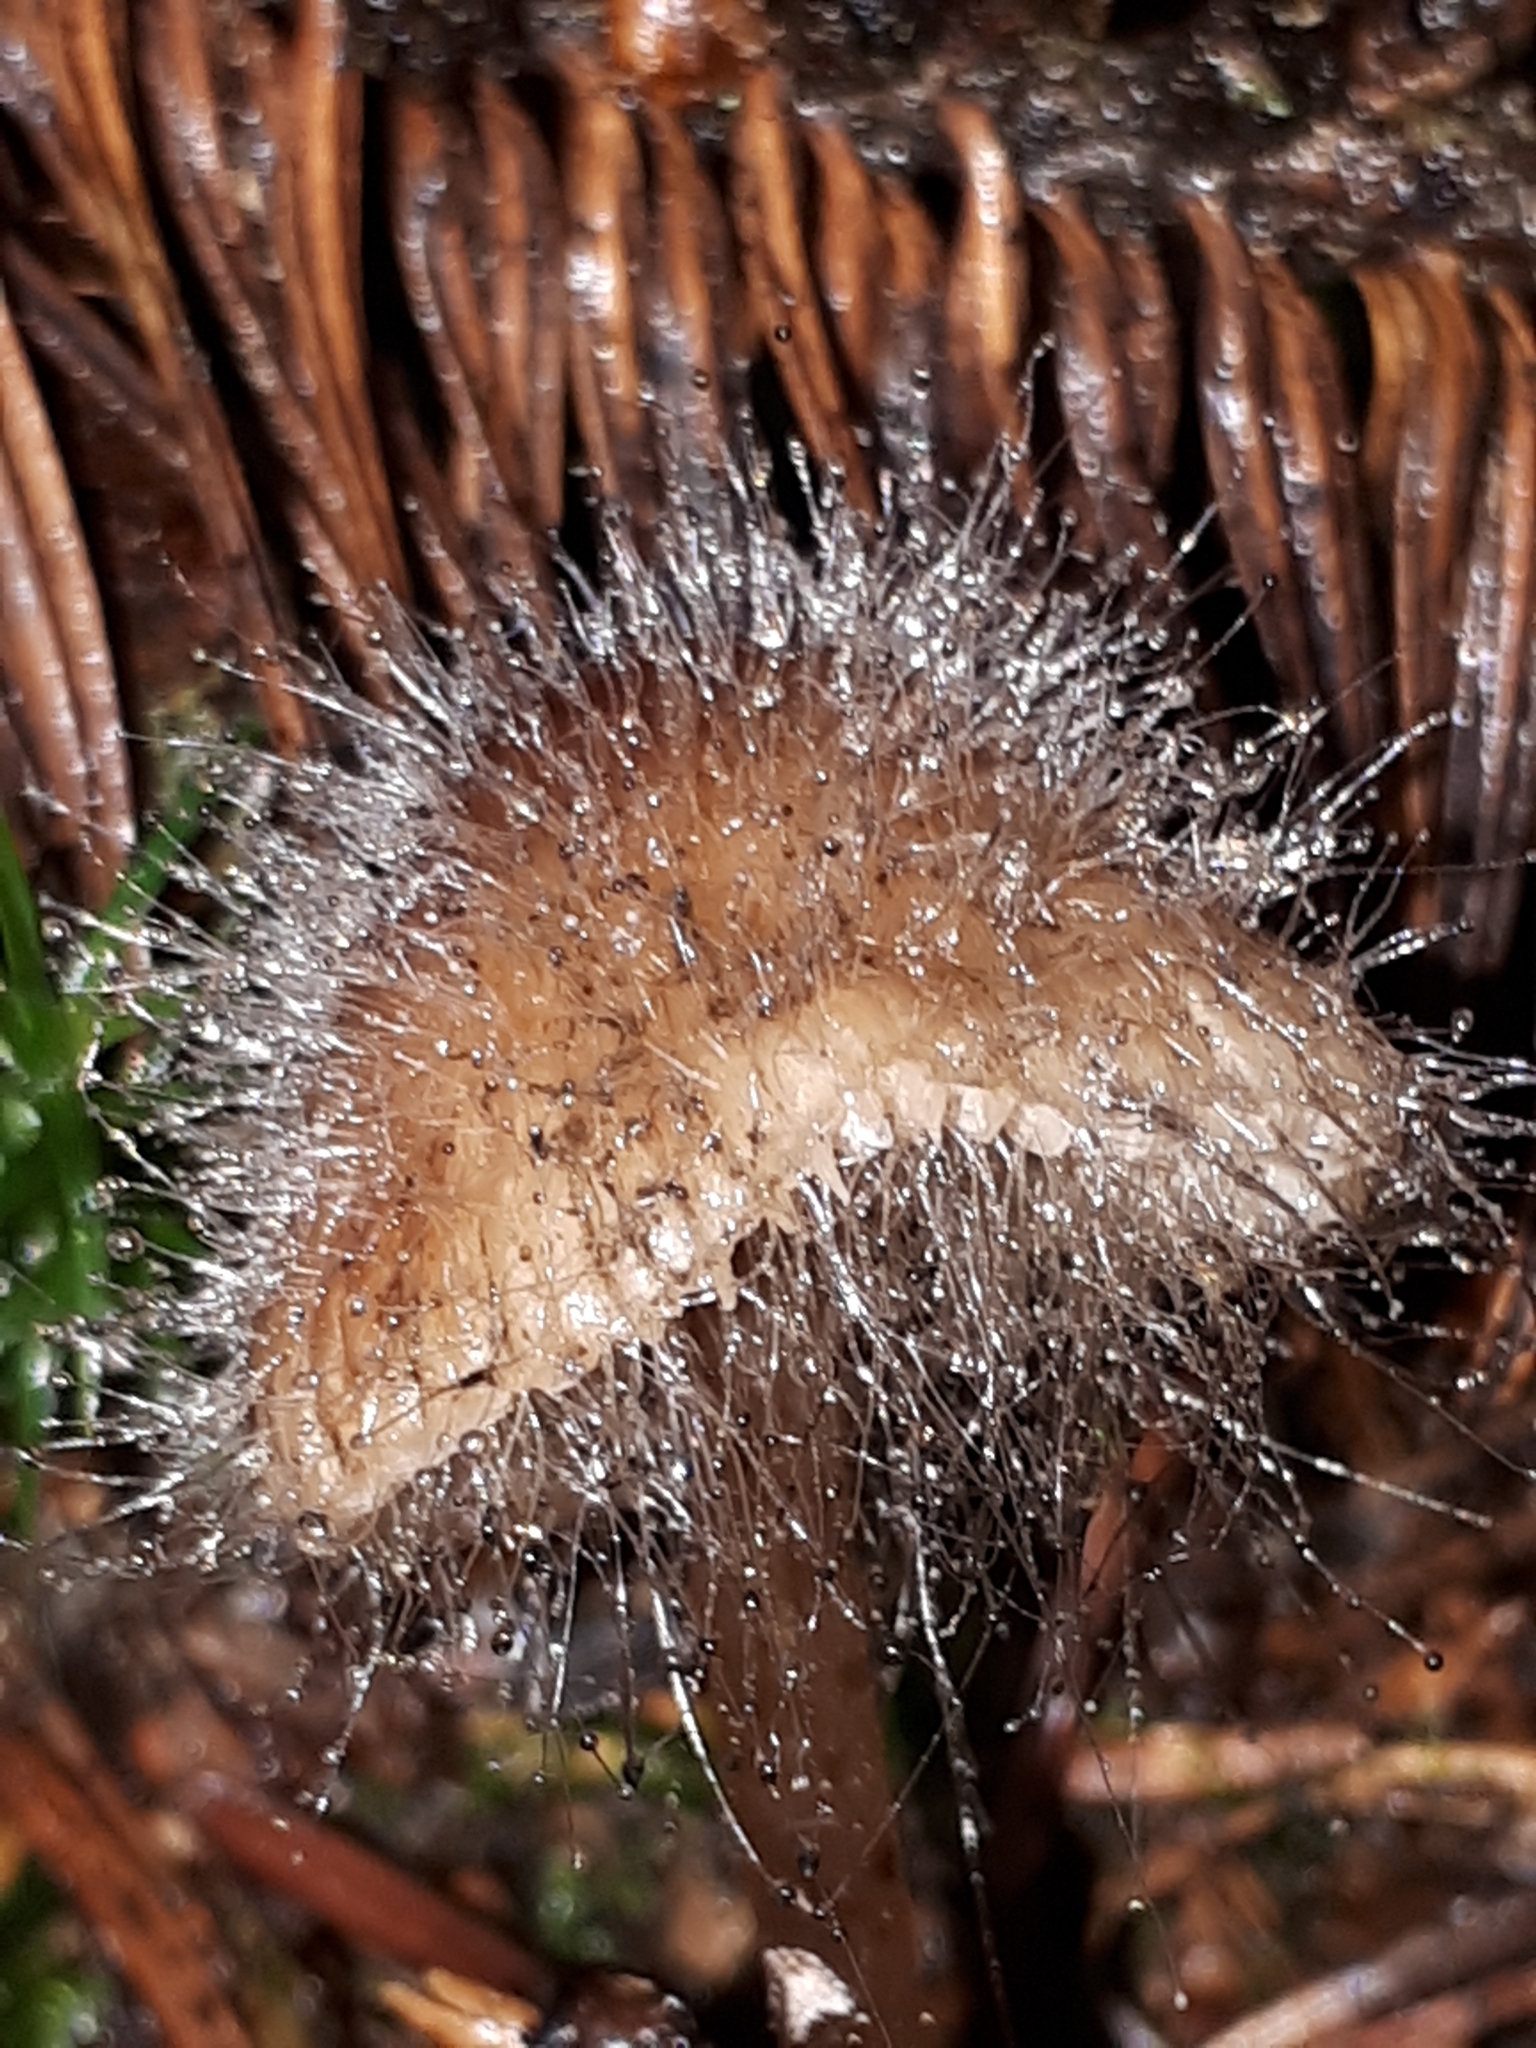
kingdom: Fungi
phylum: Mucoromycota
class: Mucoromycetes
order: Mucorales
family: Phycomycetaceae
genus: Spinellus
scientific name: Spinellus fusiger
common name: Bonnet mould
